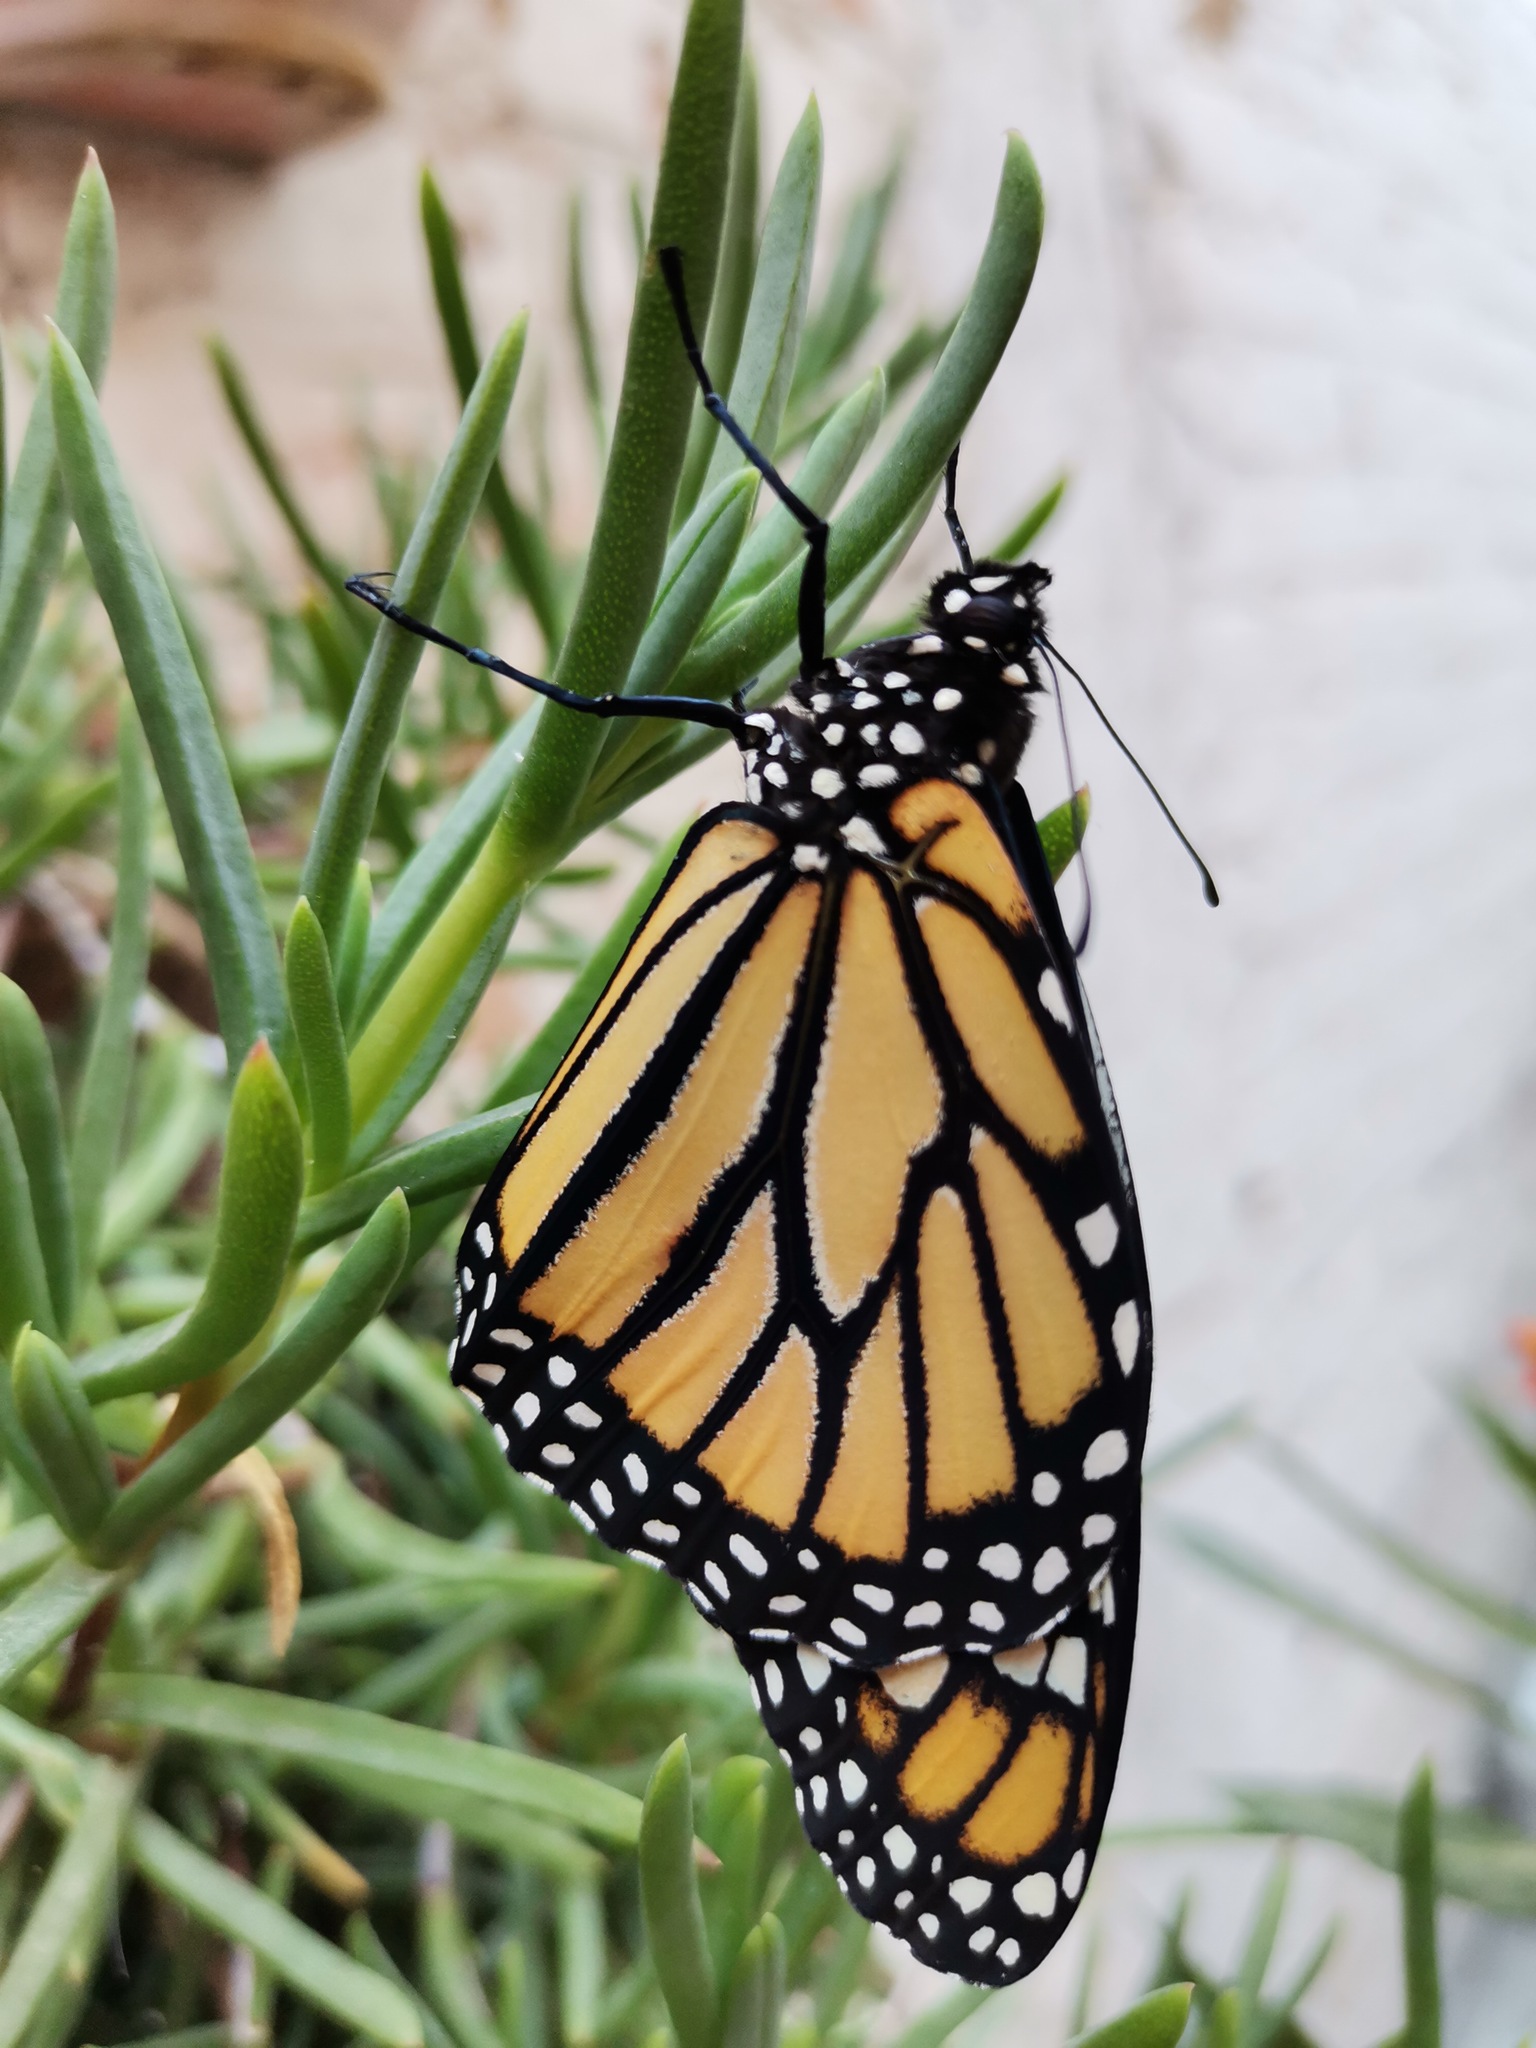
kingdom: Animalia
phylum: Arthropoda
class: Insecta
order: Lepidoptera
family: Nymphalidae
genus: Danaus
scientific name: Danaus plexippus
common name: Monarch
